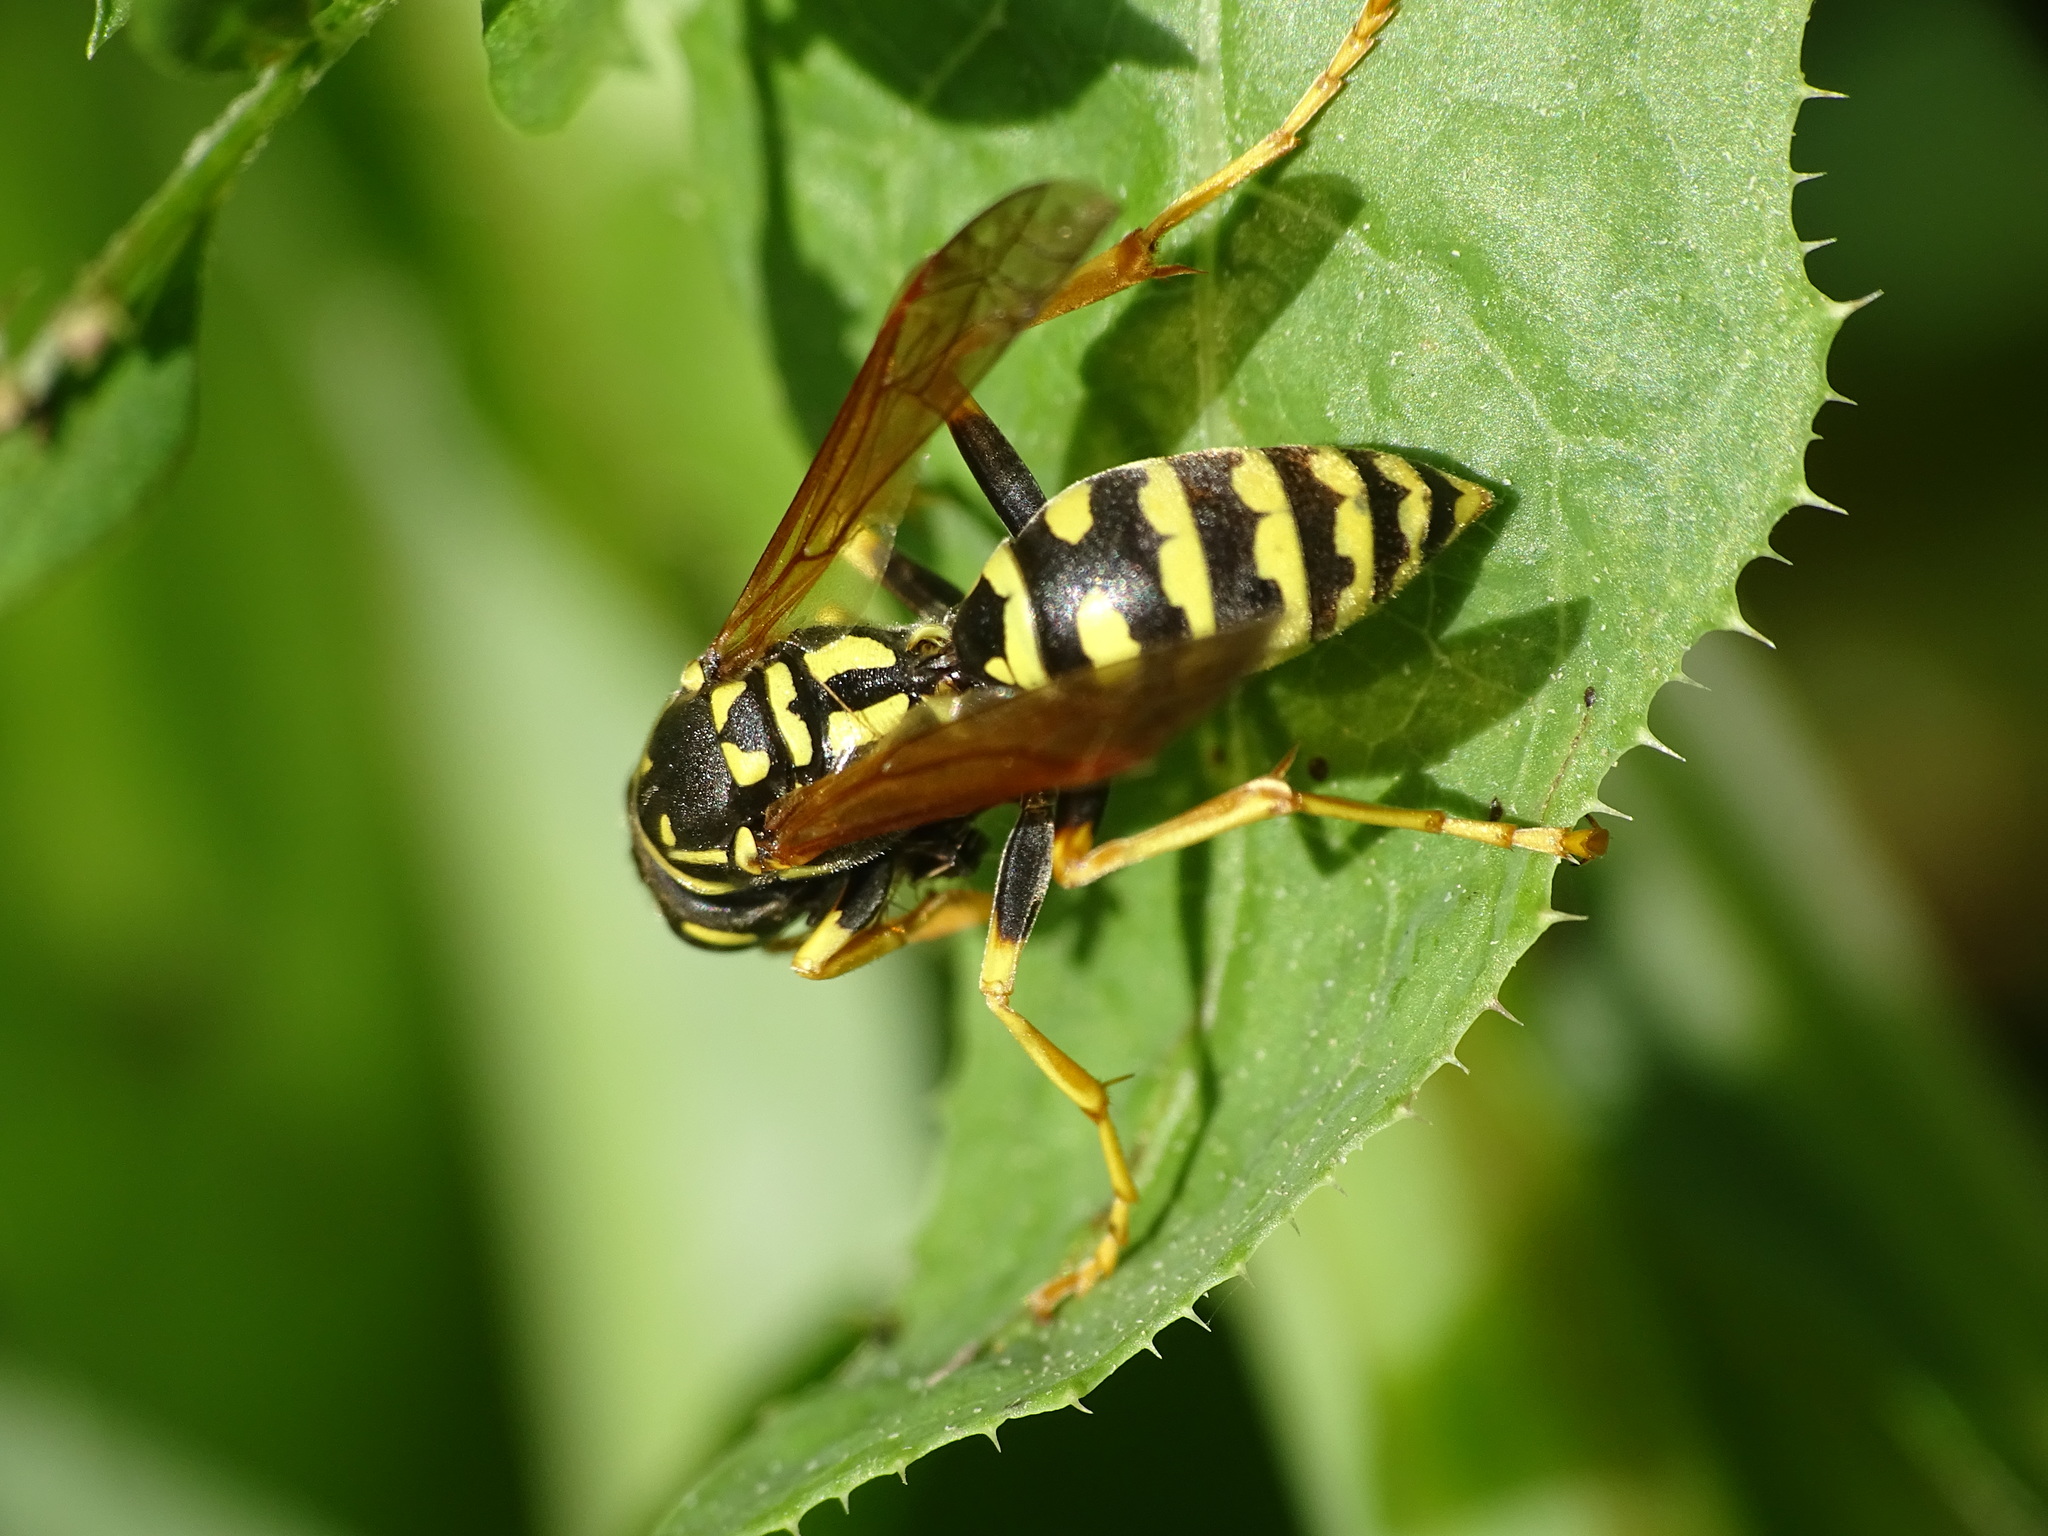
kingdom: Animalia
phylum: Arthropoda
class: Insecta
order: Hymenoptera
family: Eumenidae
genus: Polistes
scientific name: Polistes dominula
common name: Paper wasp
